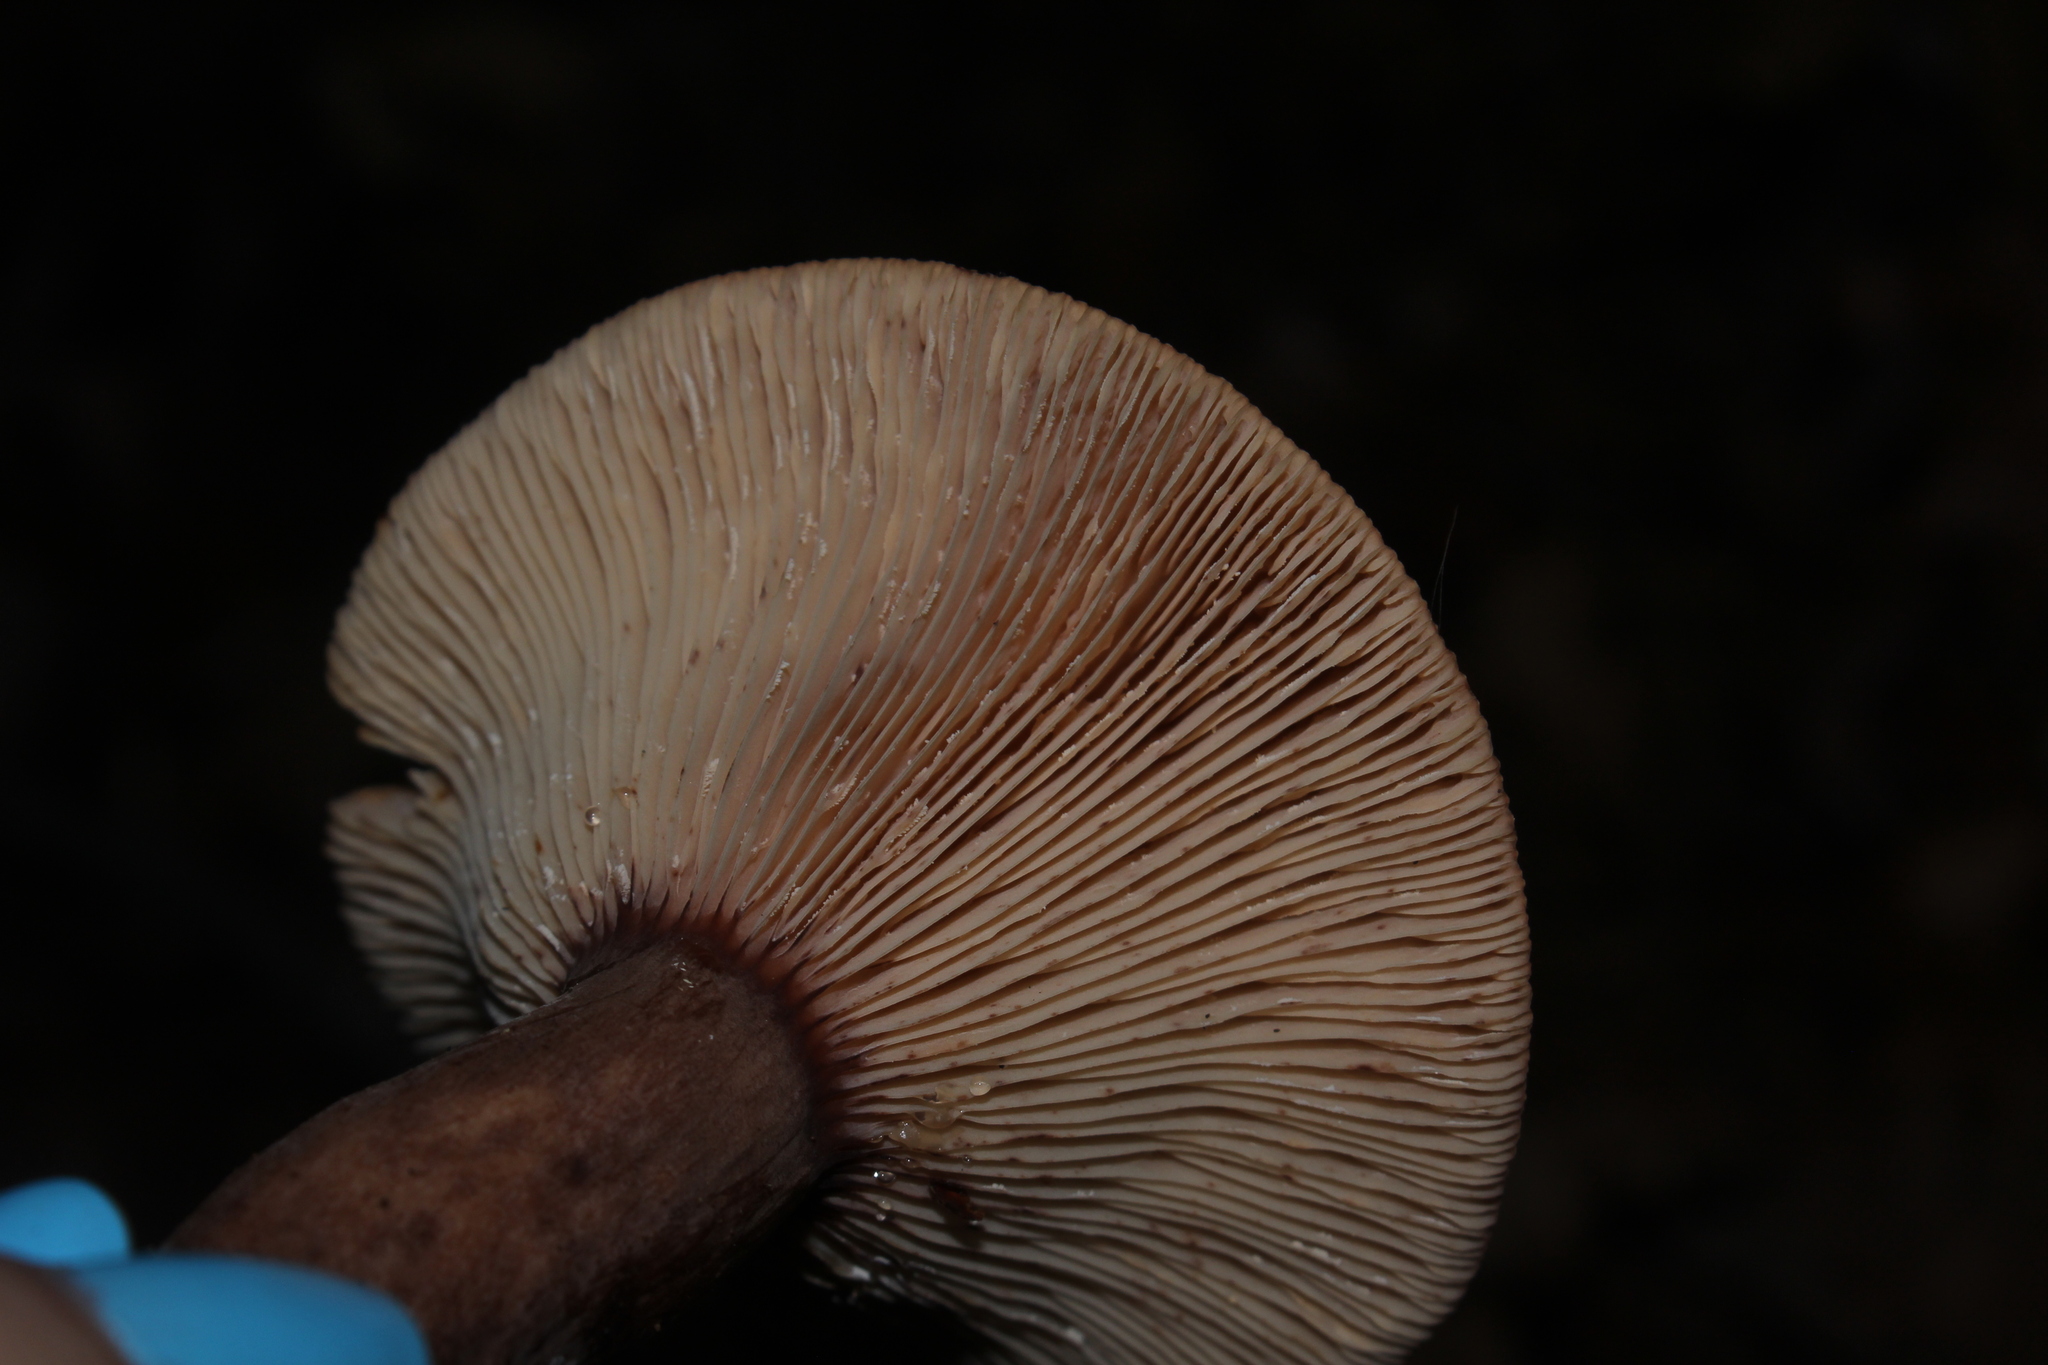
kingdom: Fungi
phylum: Basidiomycota
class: Agaricomycetes
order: Russulales
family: Russulaceae
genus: Lactarius
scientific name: Lactarius quietus
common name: Oak milk-cap
